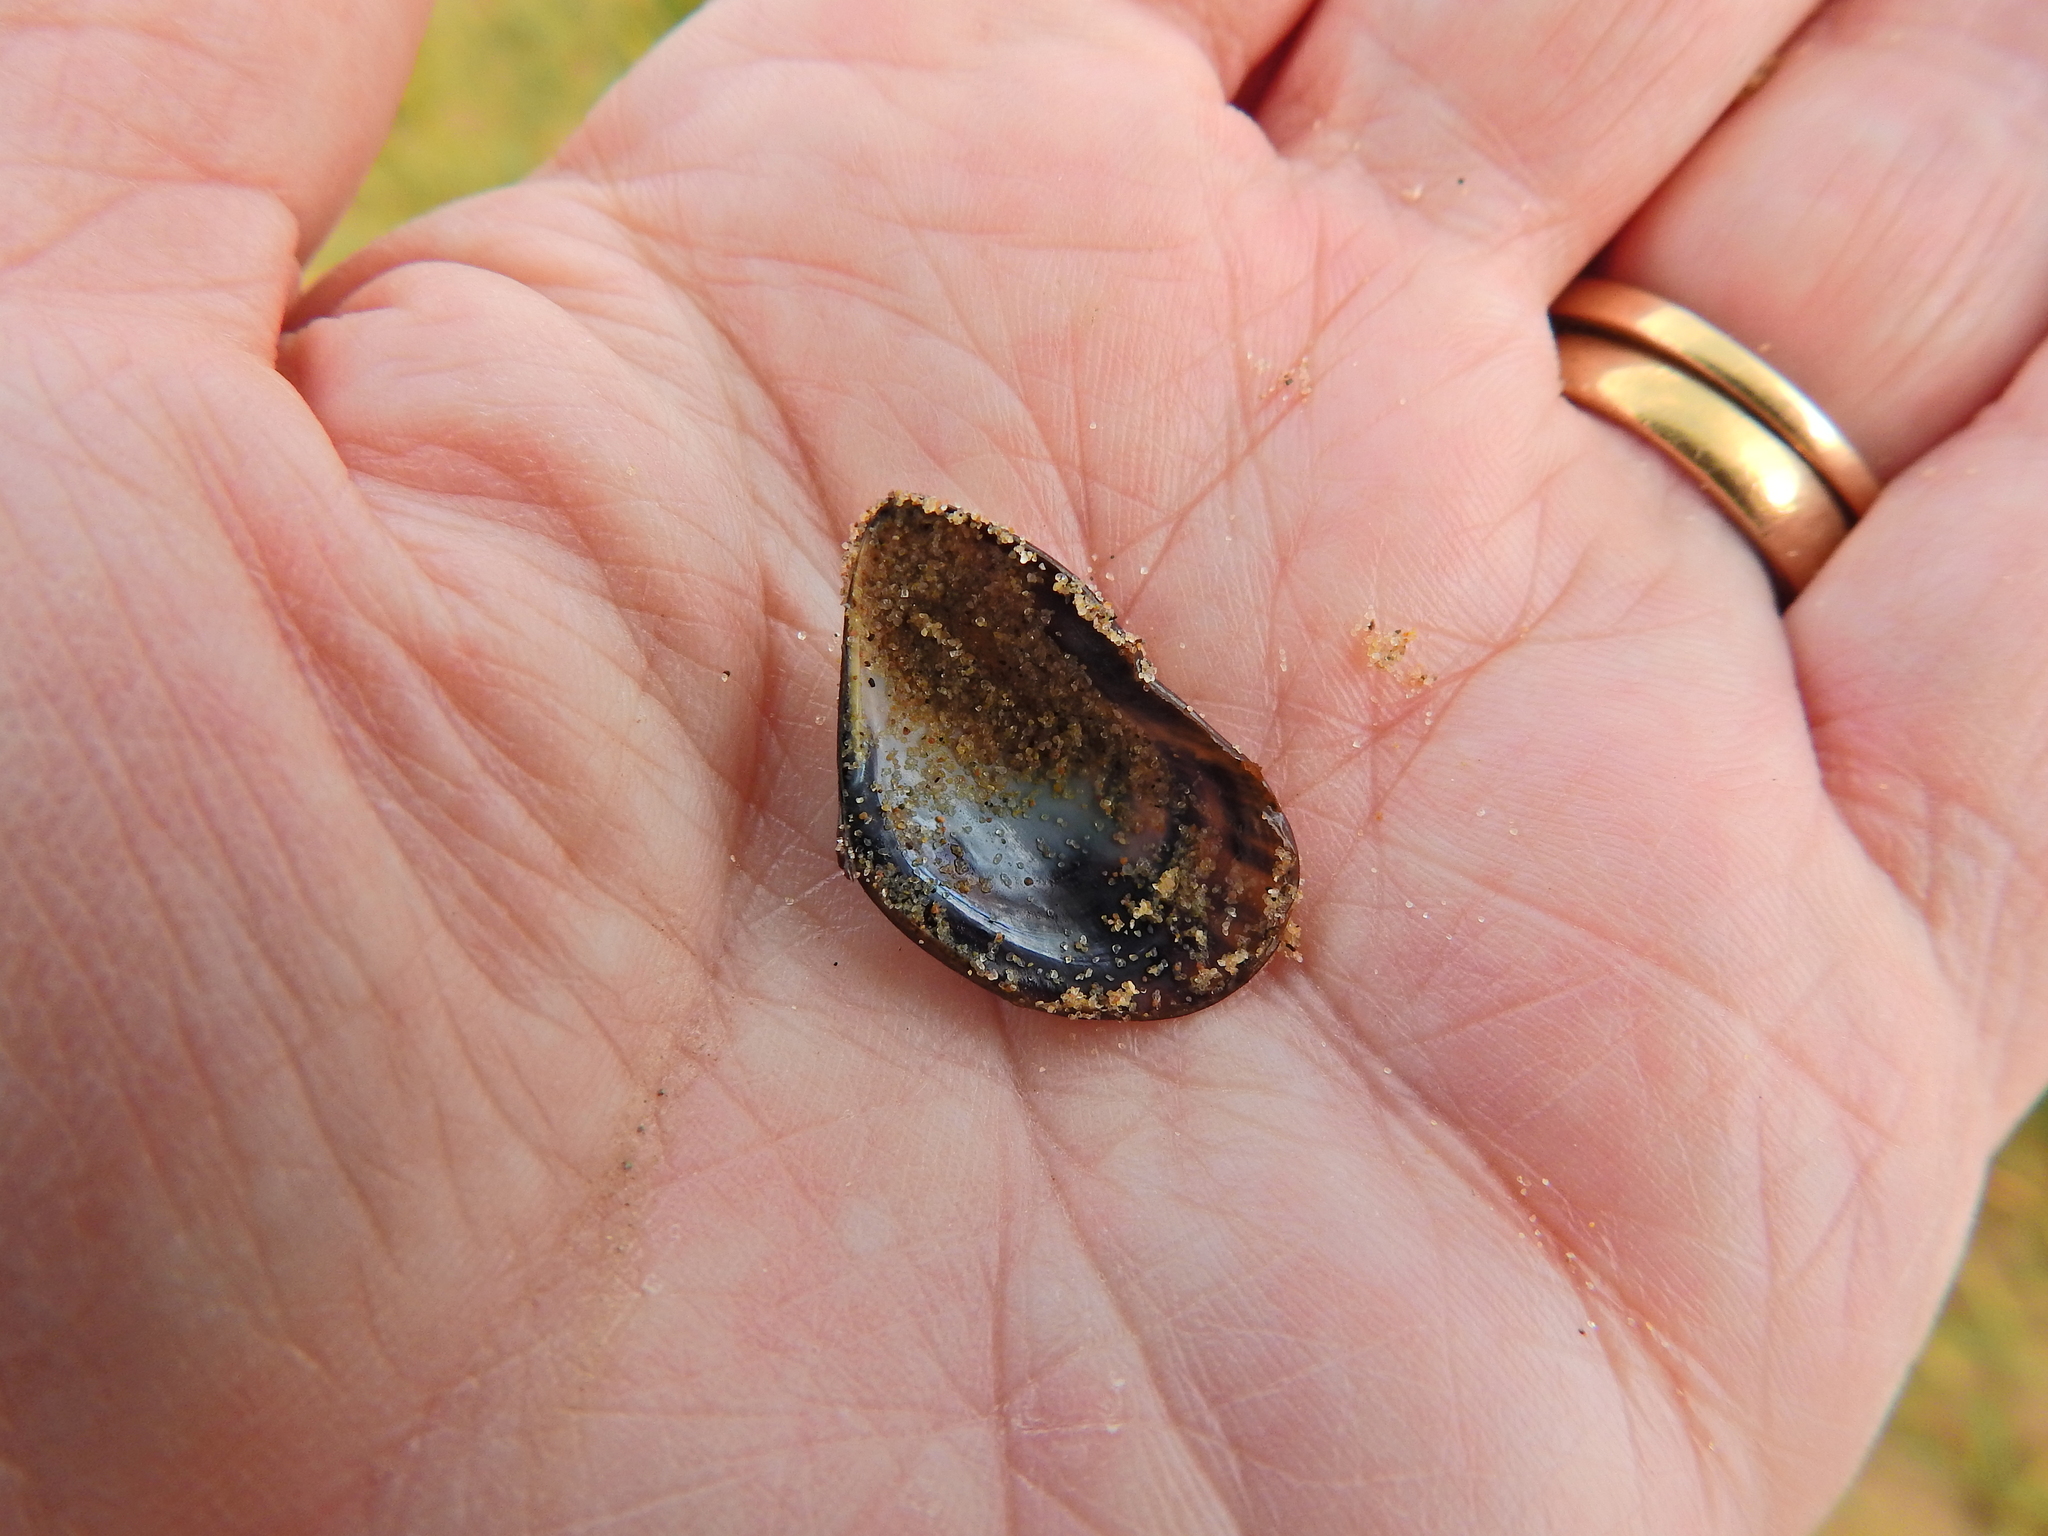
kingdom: Animalia
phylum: Mollusca
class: Bivalvia
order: Mytilida
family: Mytilidae
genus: Mytilus
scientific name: Mytilus edulis
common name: Blue mussel
